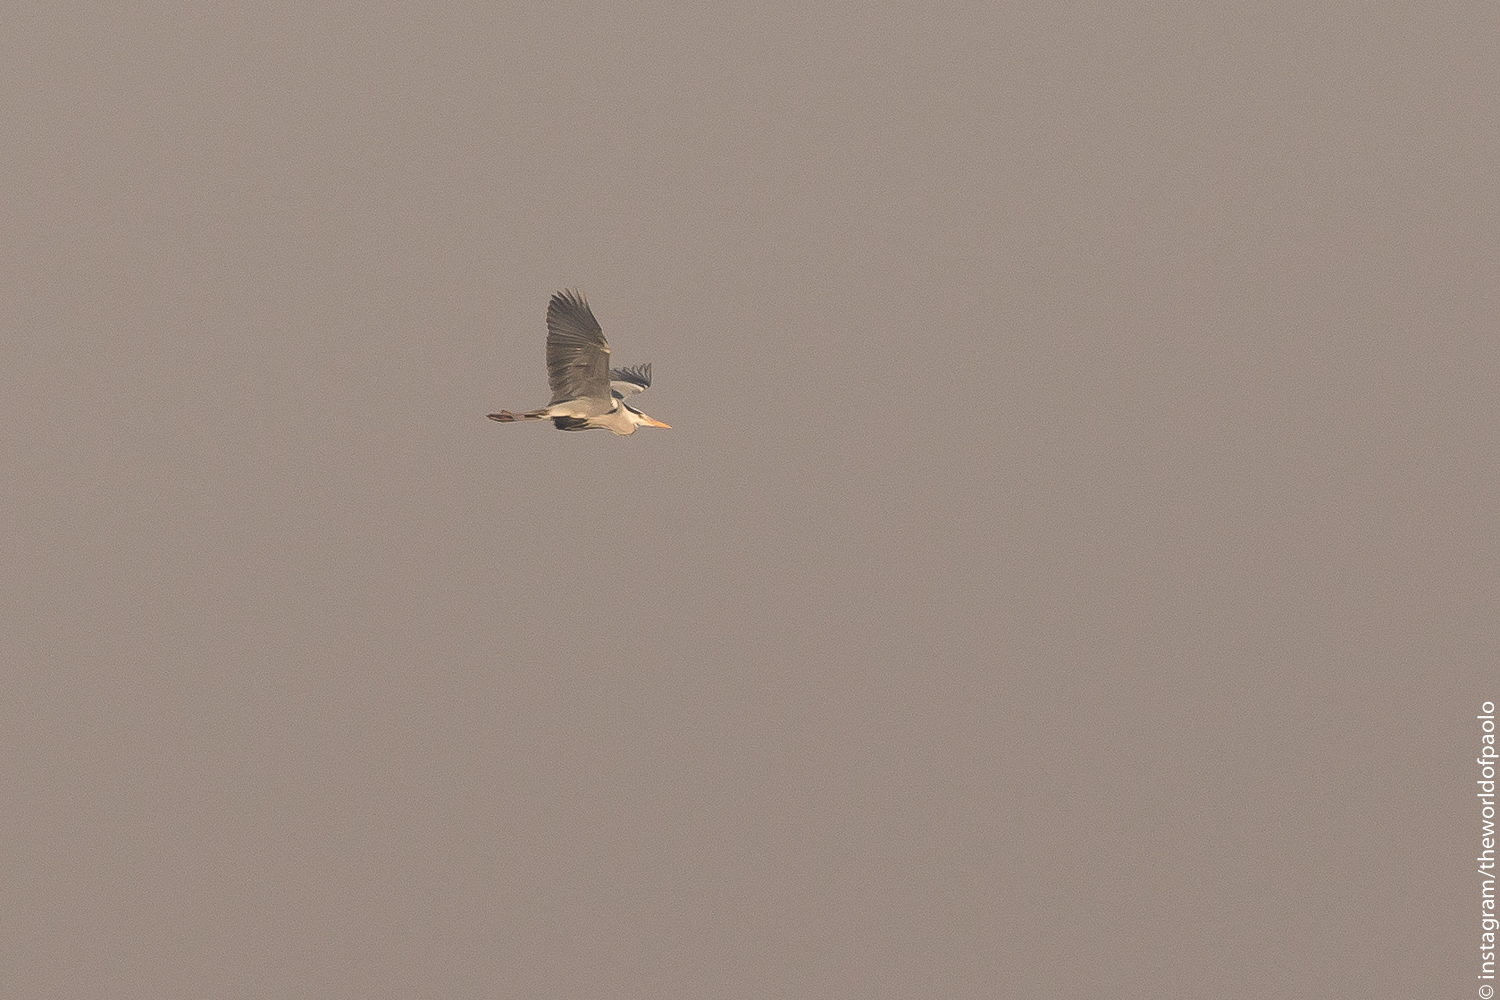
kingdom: Animalia
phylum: Chordata
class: Aves
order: Pelecaniformes
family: Ardeidae
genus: Ardea
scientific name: Ardea cinerea
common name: Grey heron
